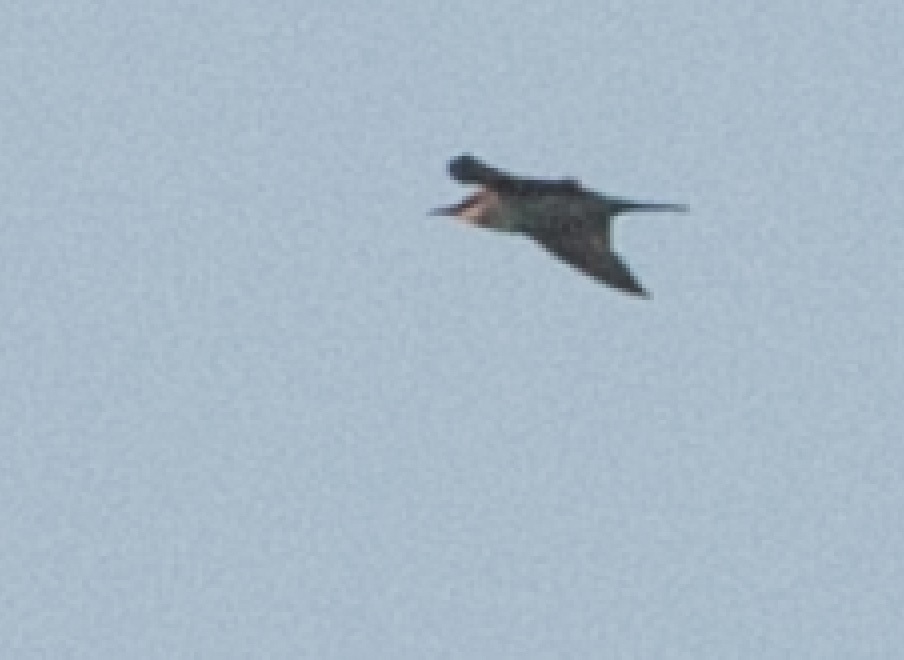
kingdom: Animalia
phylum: Chordata
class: Aves
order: Coraciiformes
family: Meropidae
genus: Merops
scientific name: Merops apiaster
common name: European bee-eater
